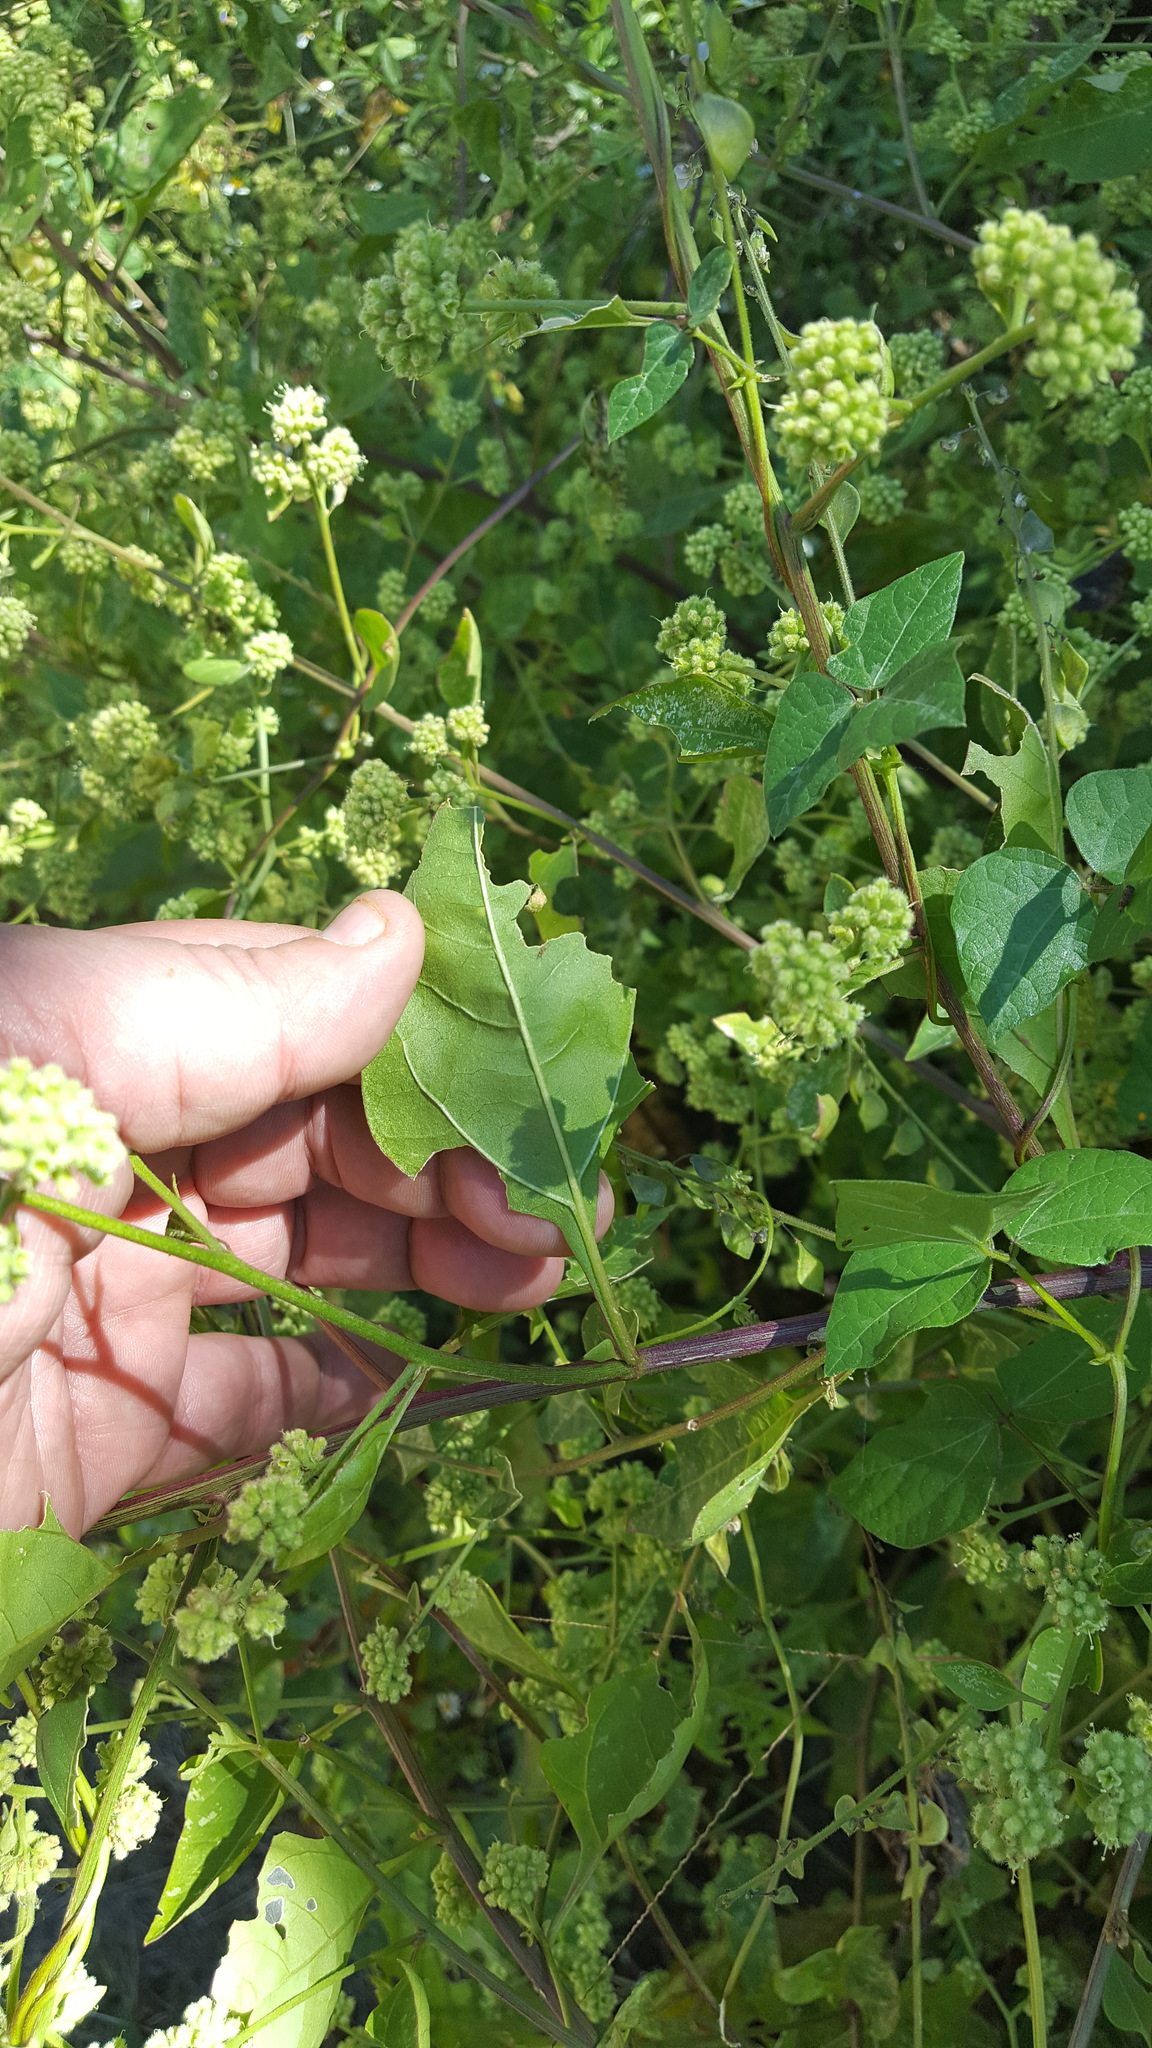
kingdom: Plantae
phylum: Tracheophyta
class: Magnoliopsida
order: Caryophyllales
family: Nyctaginaceae
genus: Boldoa
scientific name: Boldoa purpurascens
